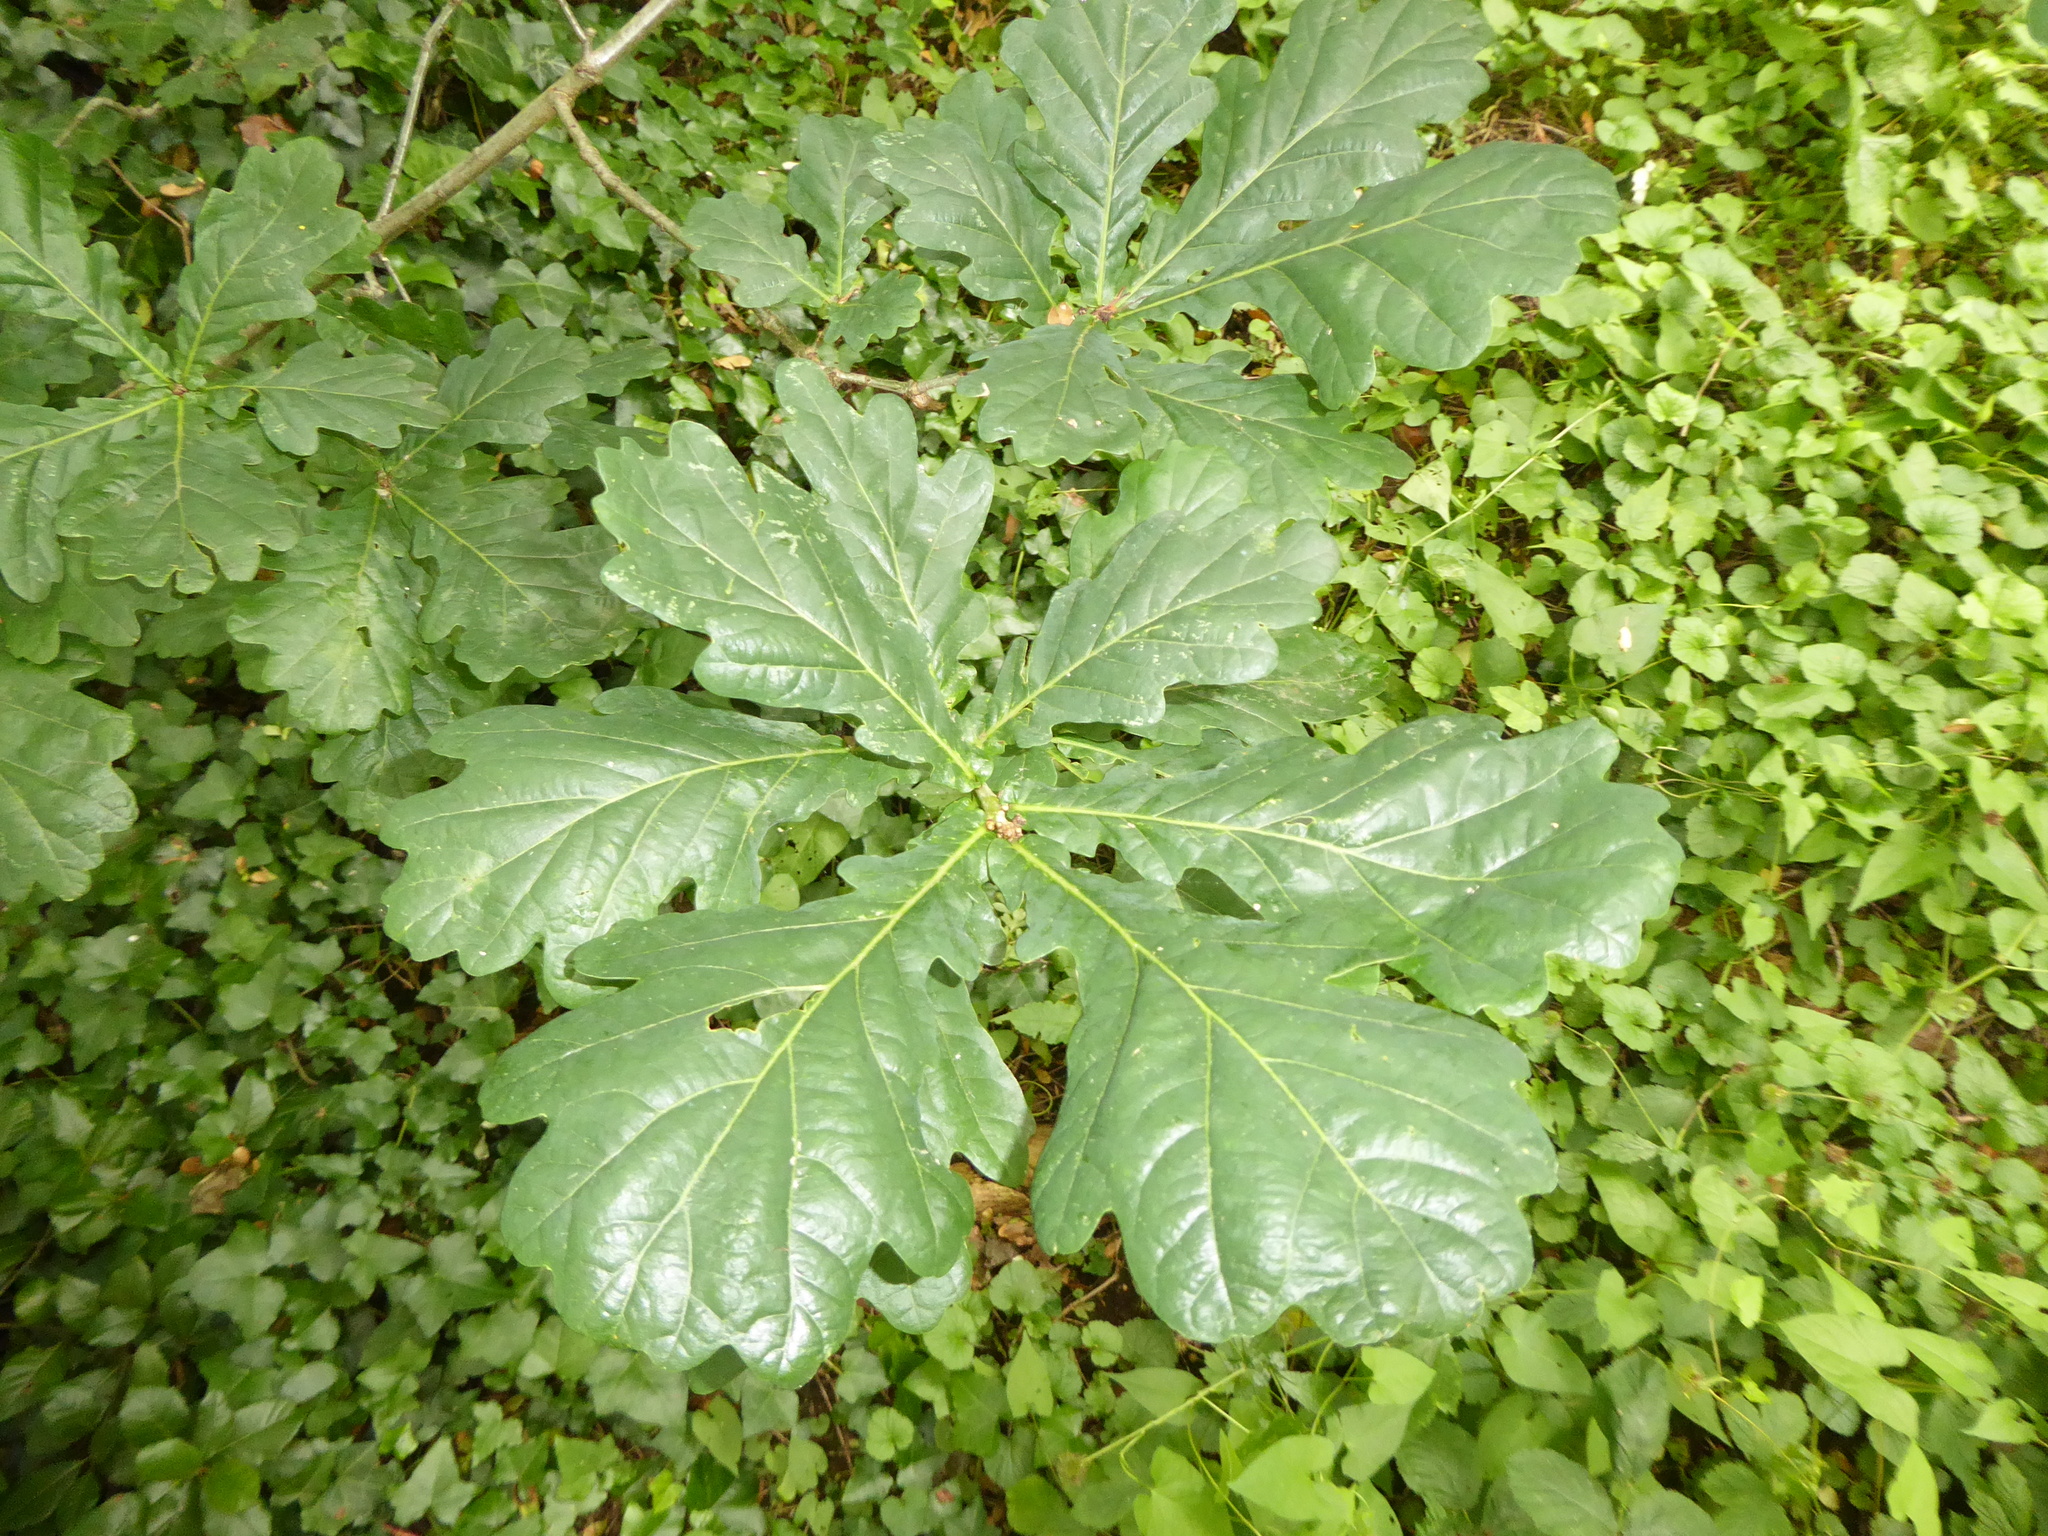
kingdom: Plantae
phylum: Tracheophyta
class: Magnoliopsida
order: Fagales
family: Fagaceae
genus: Quercus
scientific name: Quercus robur
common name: Pedunculate oak
